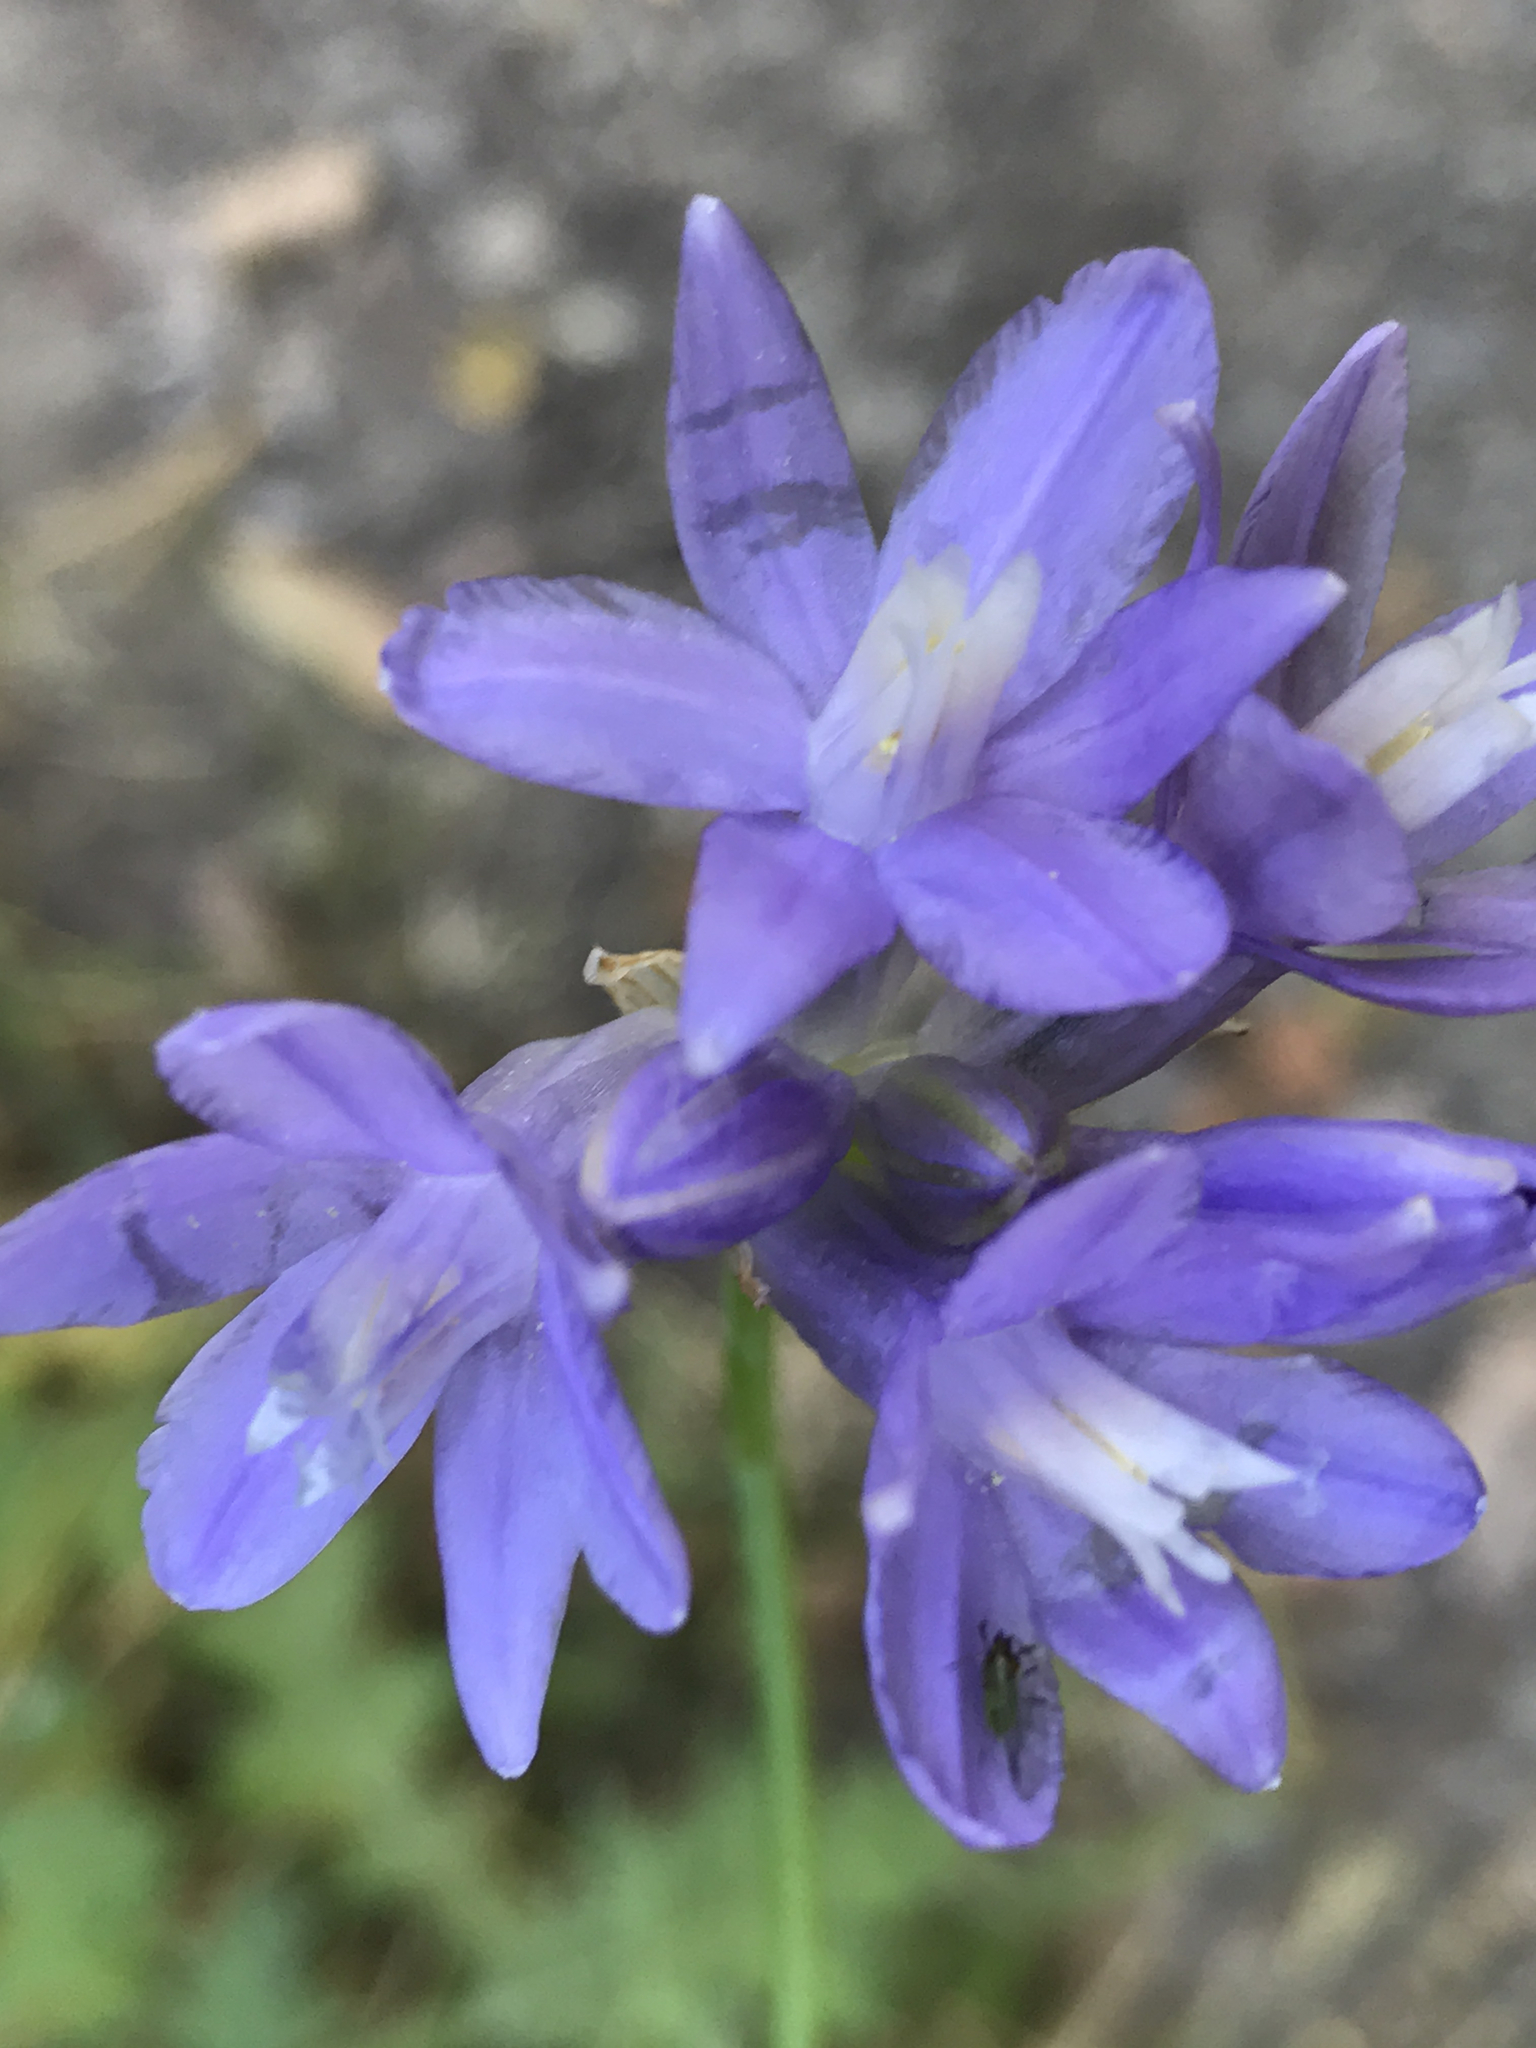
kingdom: Plantae
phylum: Tracheophyta
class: Liliopsida
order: Asparagales
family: Asparagaceae
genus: Dipterostemon
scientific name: Dipterostemon capitatus
